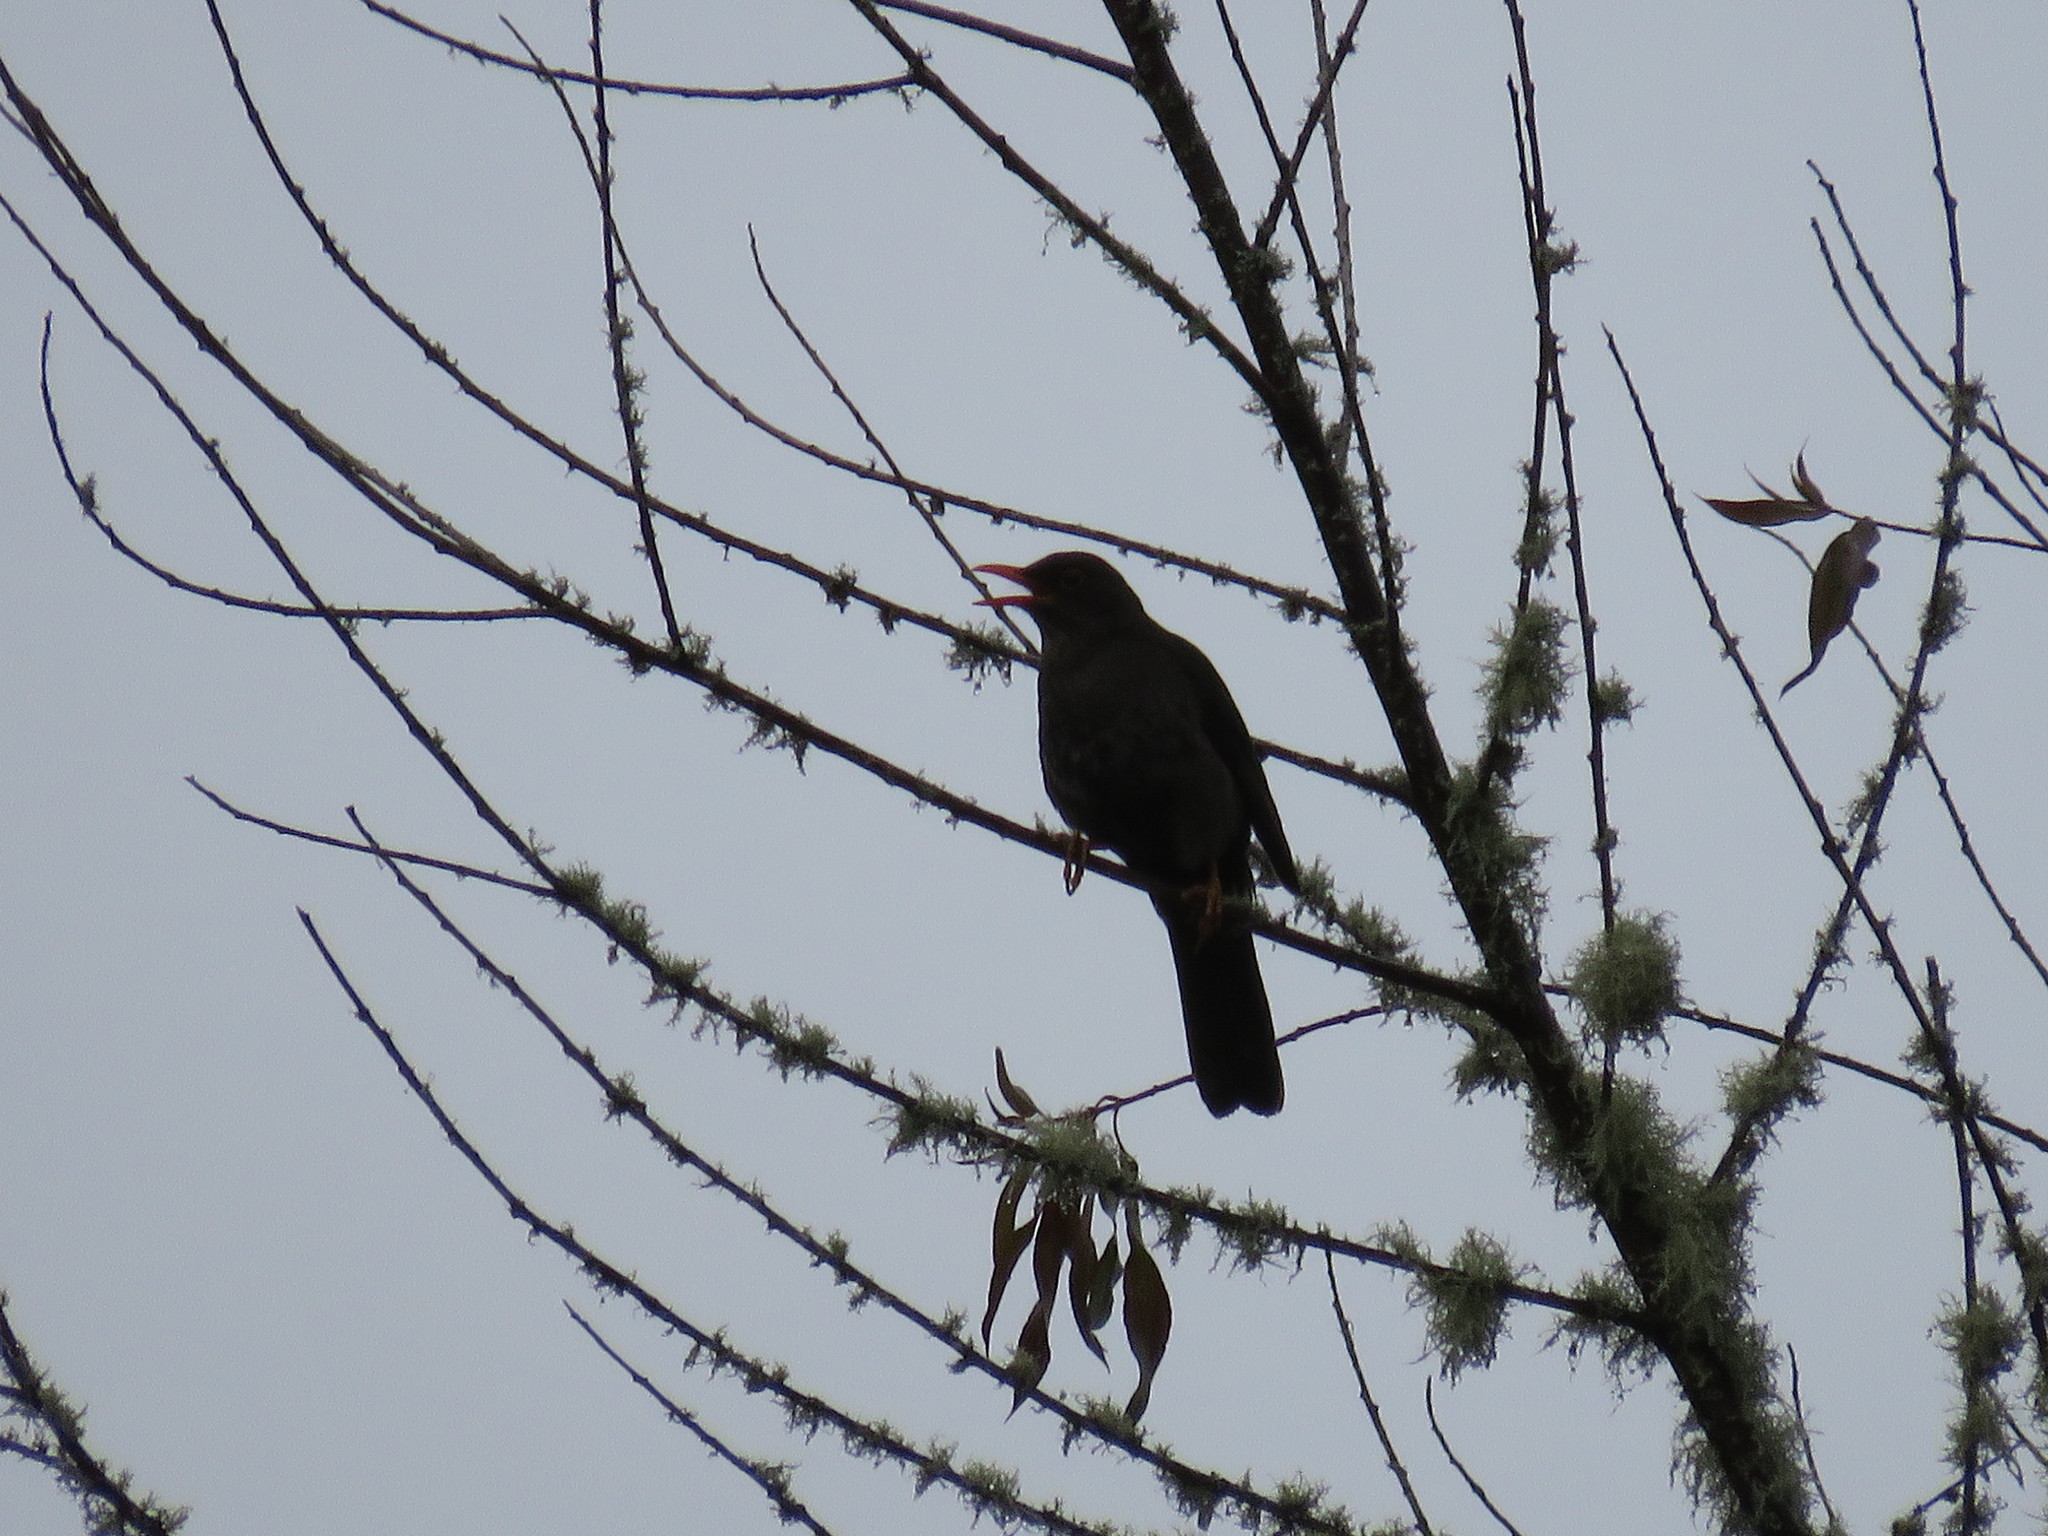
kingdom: Animalia
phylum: Chordata
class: Aves
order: Passeriformes
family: Turdidae
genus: Turdus
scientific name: Turdus chiguanco
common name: Chiguanco thrush
